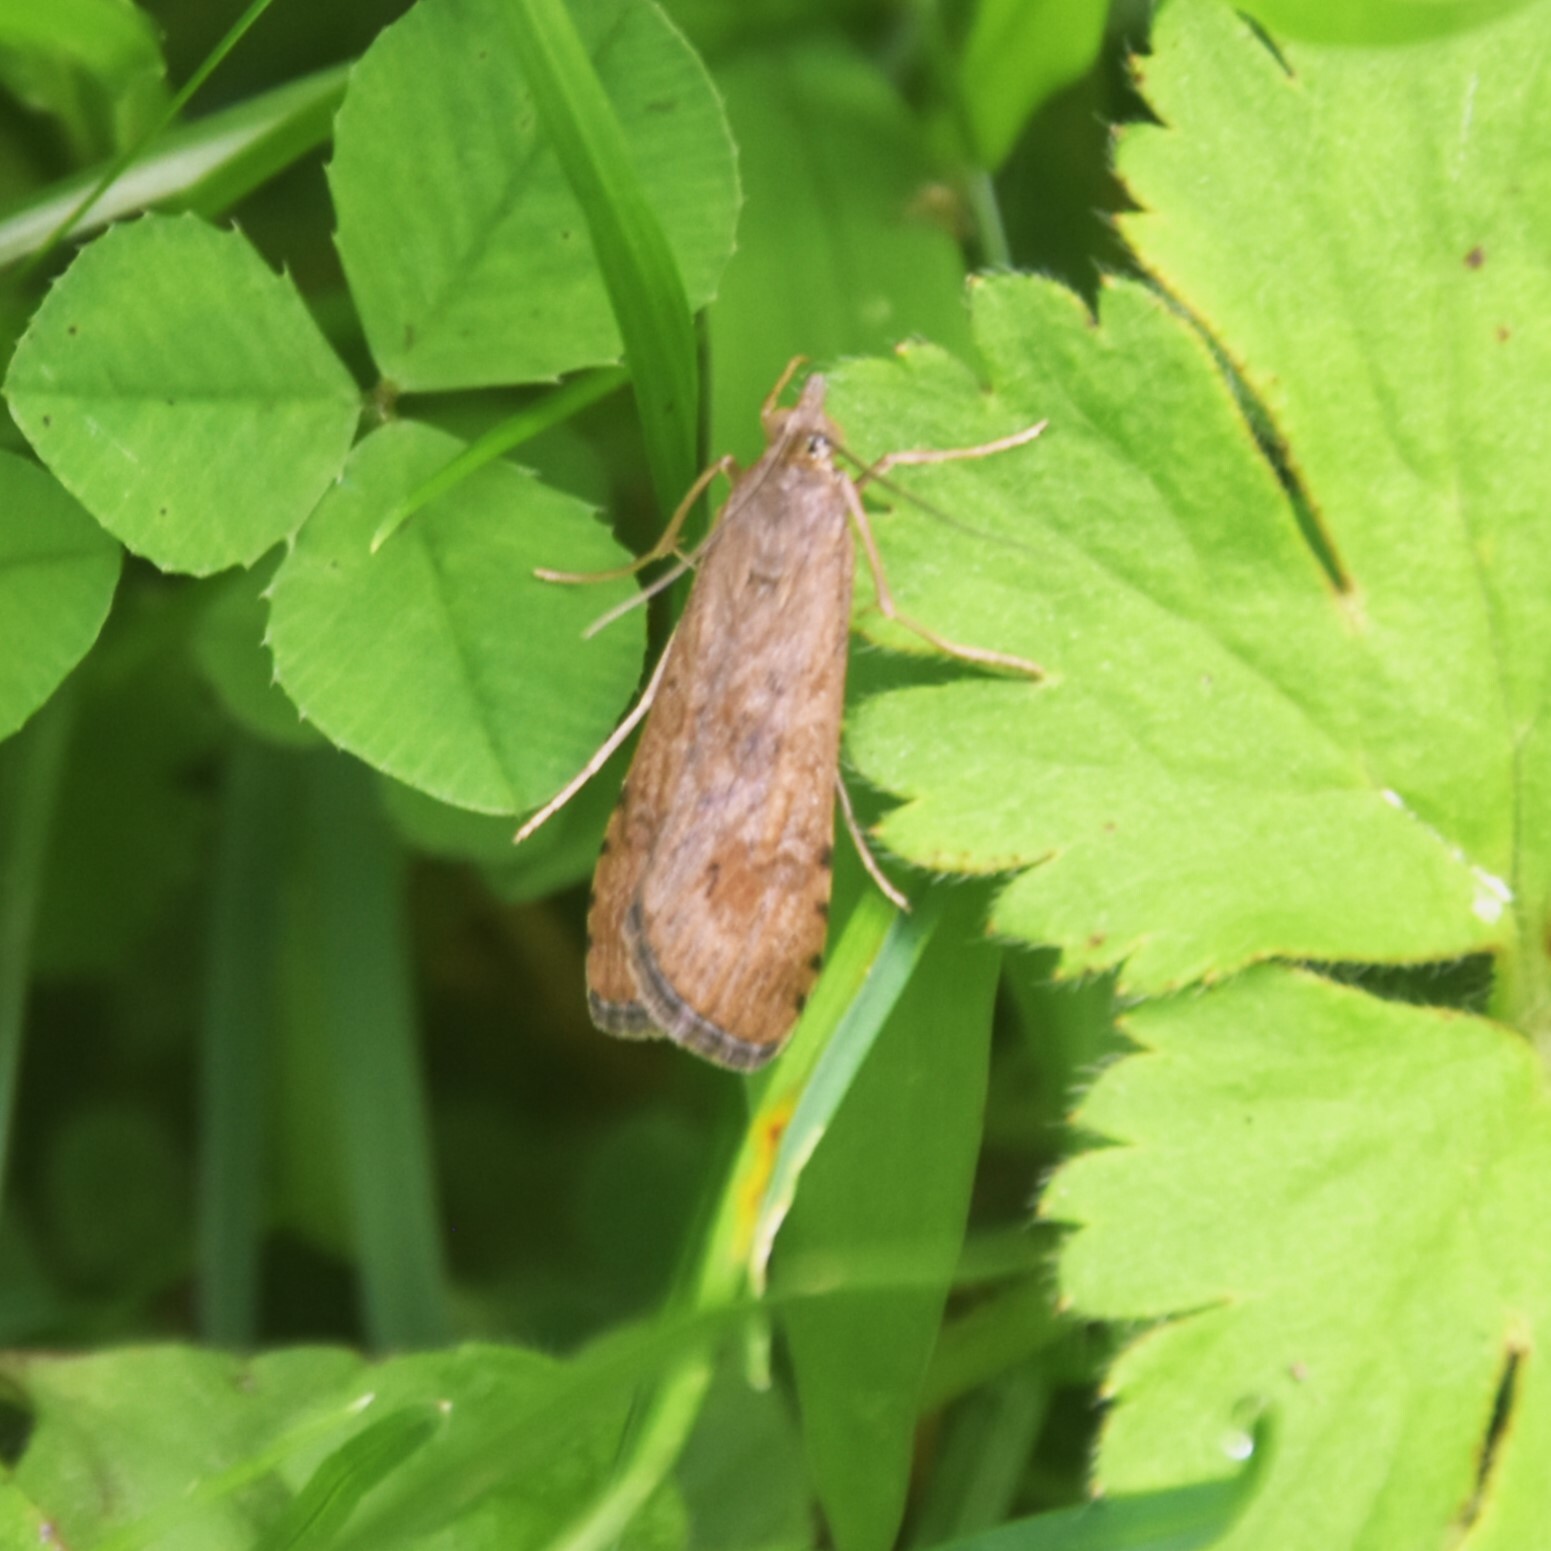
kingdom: Animalia
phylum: Arthropoda
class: Insecta
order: Lepidoptera
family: Crambidae
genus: Nomophila
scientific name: Nomophila noctuella
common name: Rush veneer
